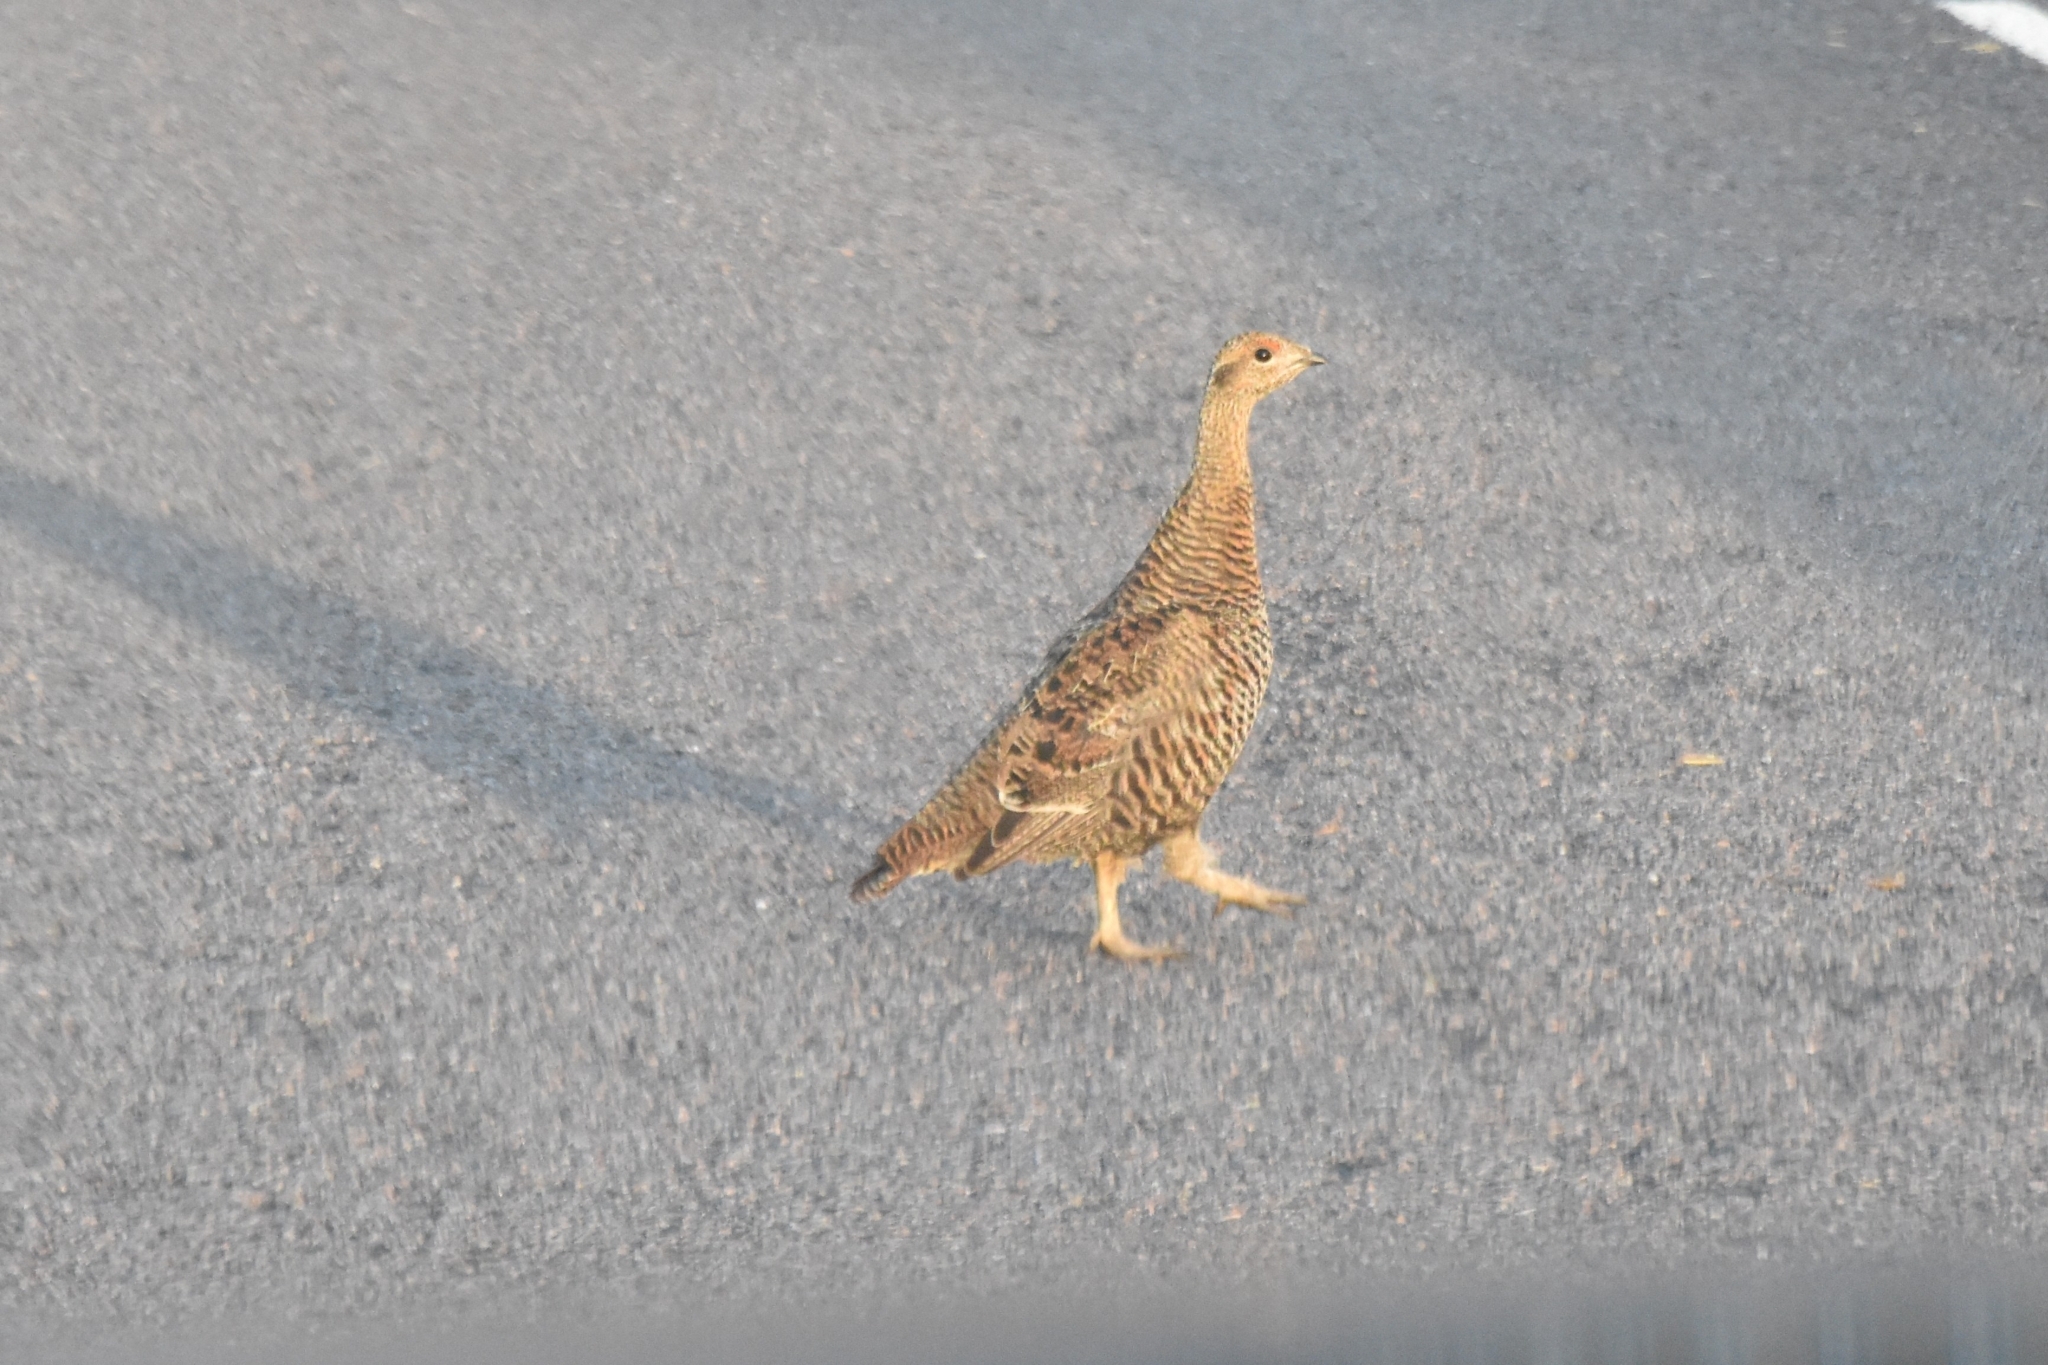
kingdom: Animalia
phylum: Chordata
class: Aves
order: Galliformes
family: Phasianidae
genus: Lyrurus
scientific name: Lyrurus tetrix
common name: Black grouse
